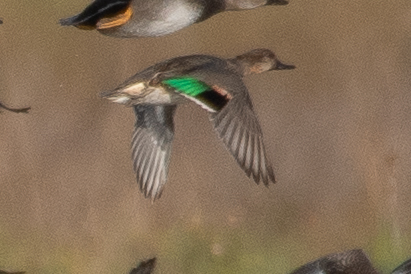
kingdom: Animalia
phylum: Chordata
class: Aves
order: Anseriformes
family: Anatidae
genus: Anas
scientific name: Anas crecca
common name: Eurasian teal
